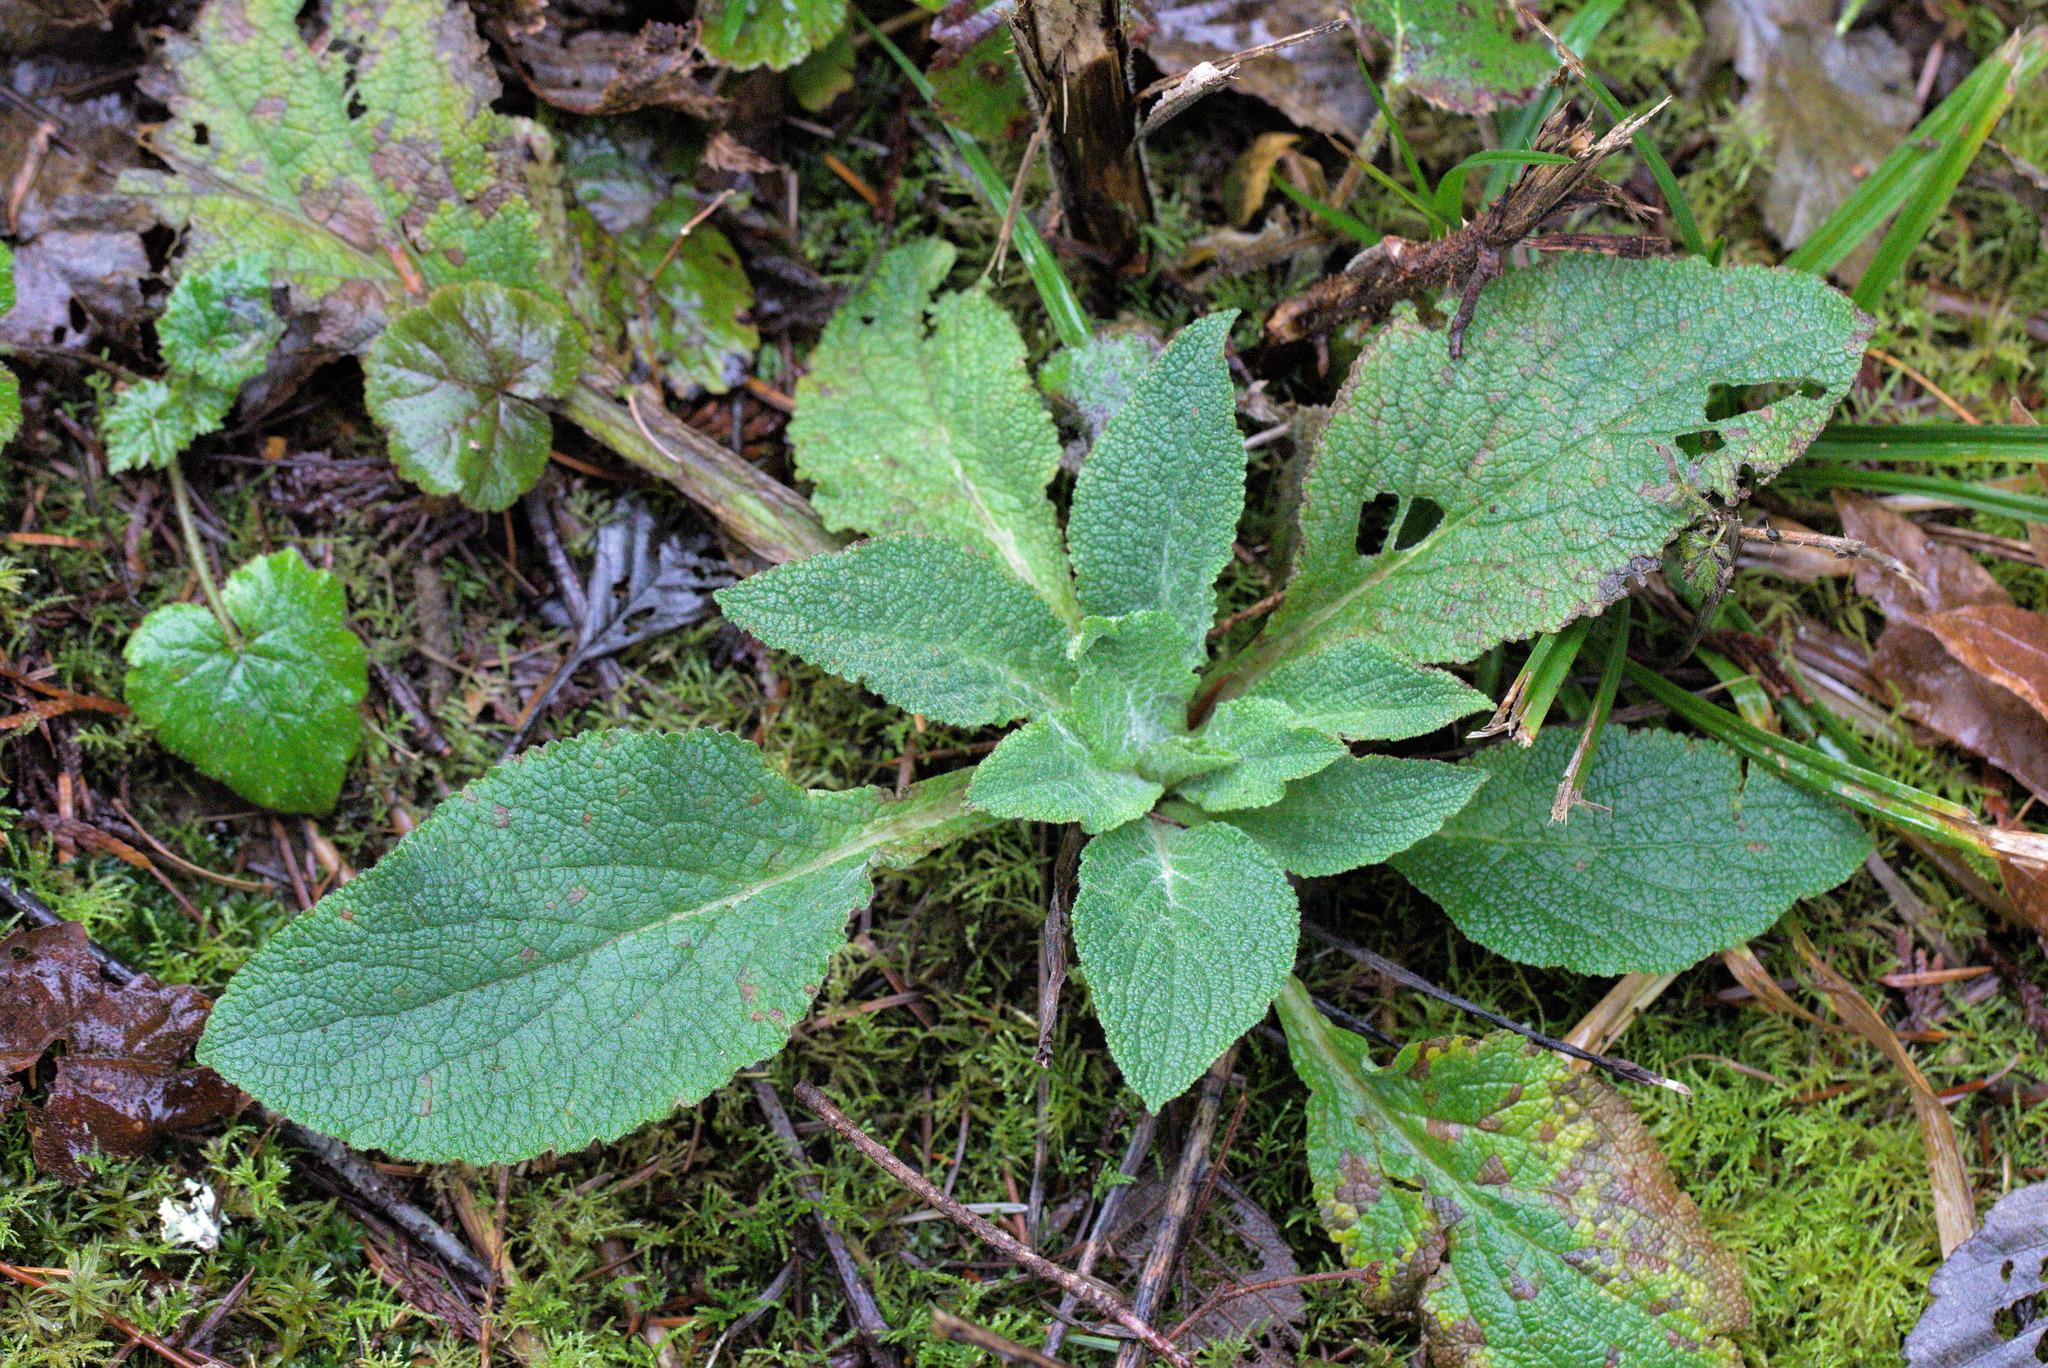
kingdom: Plantae
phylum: Tracheophyta
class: Magnoliopsida
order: Lamiales
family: Plantaginaceae
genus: Digitalis
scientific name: Digitalis purpurea
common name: Foxglove
